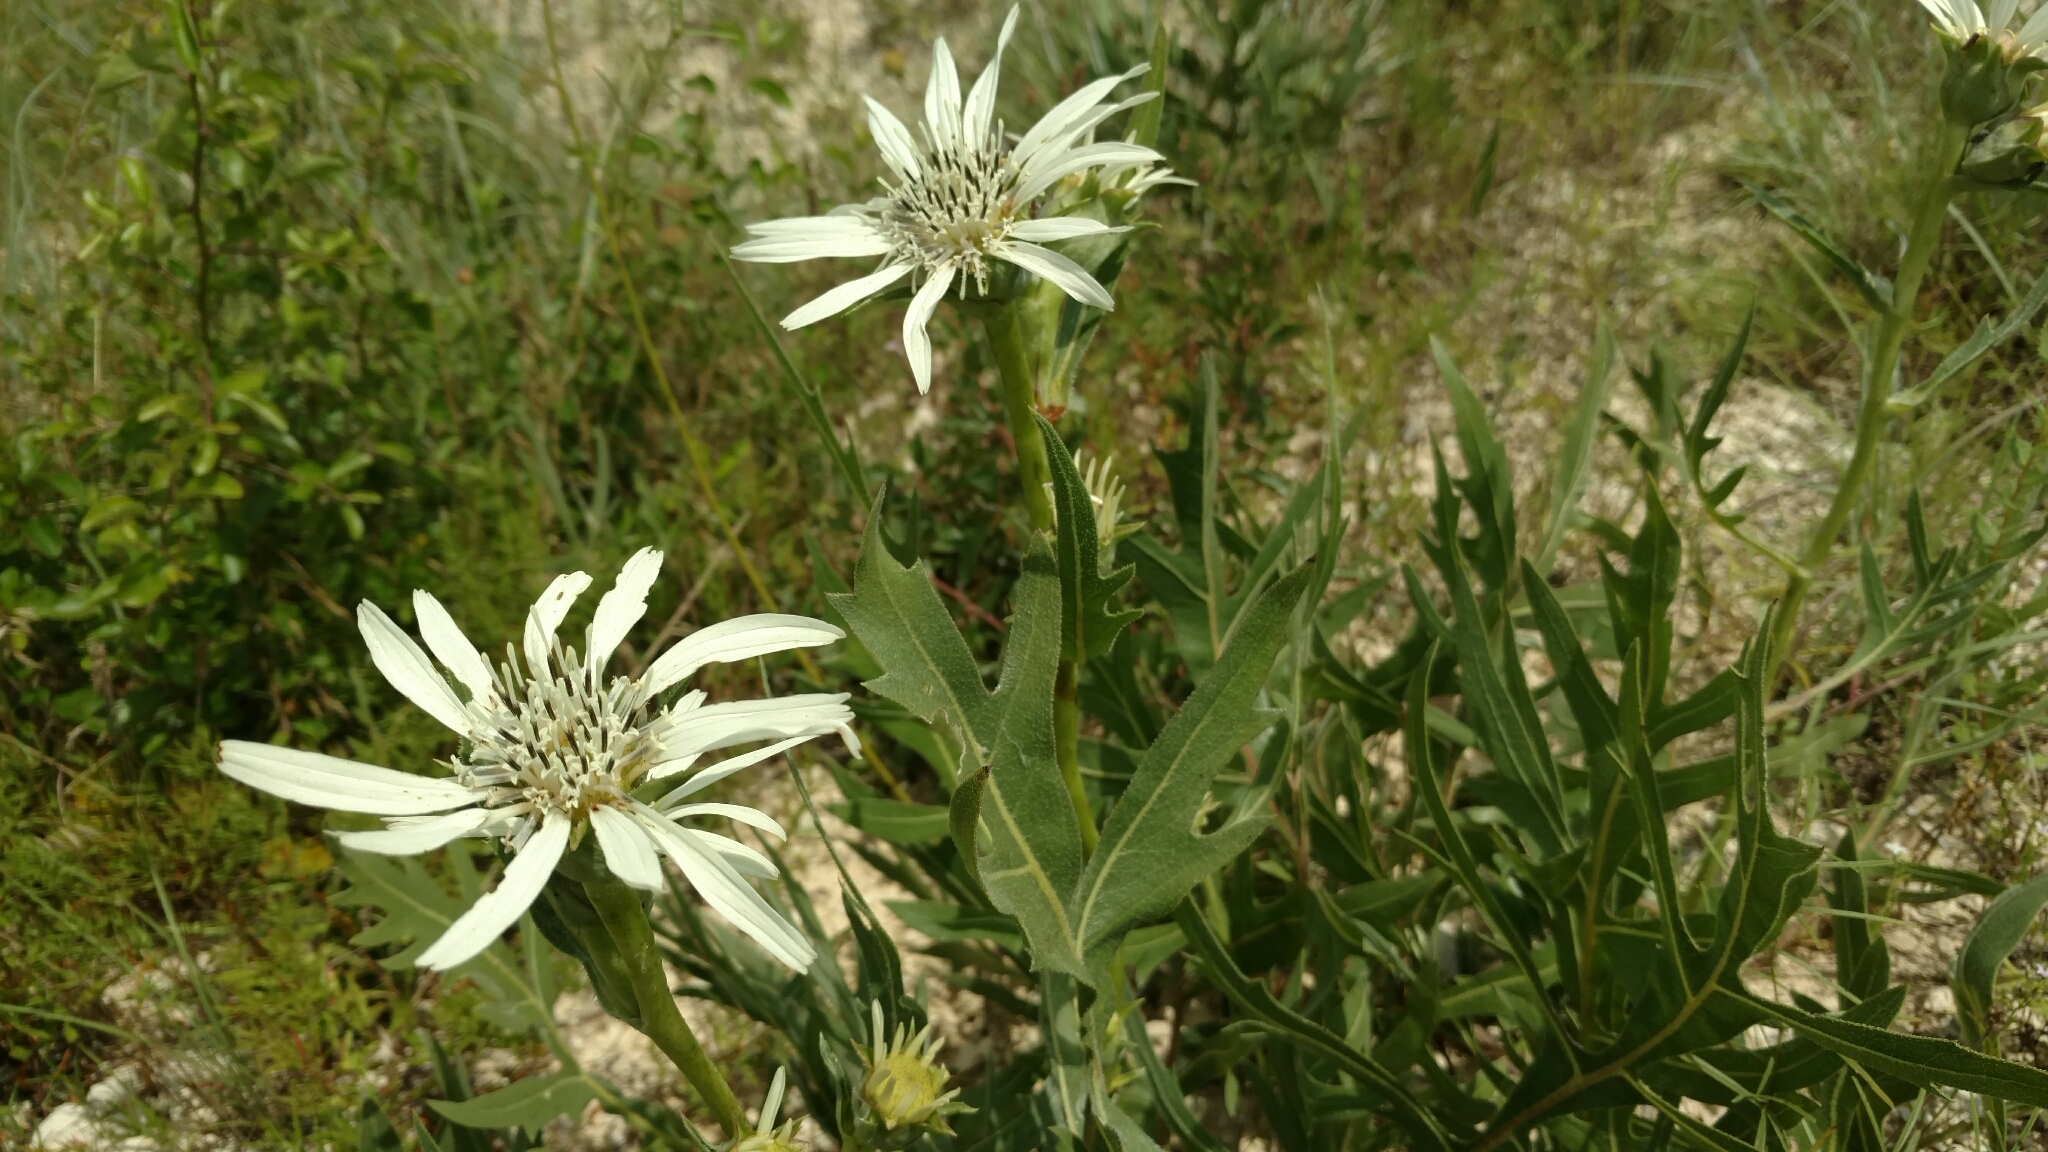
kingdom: Plantae
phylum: Tracheophyta
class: Magnoliopsida
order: Asterales
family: Asteraceae
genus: Silphium
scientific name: Silphium albiflorum
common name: White rosinweed
